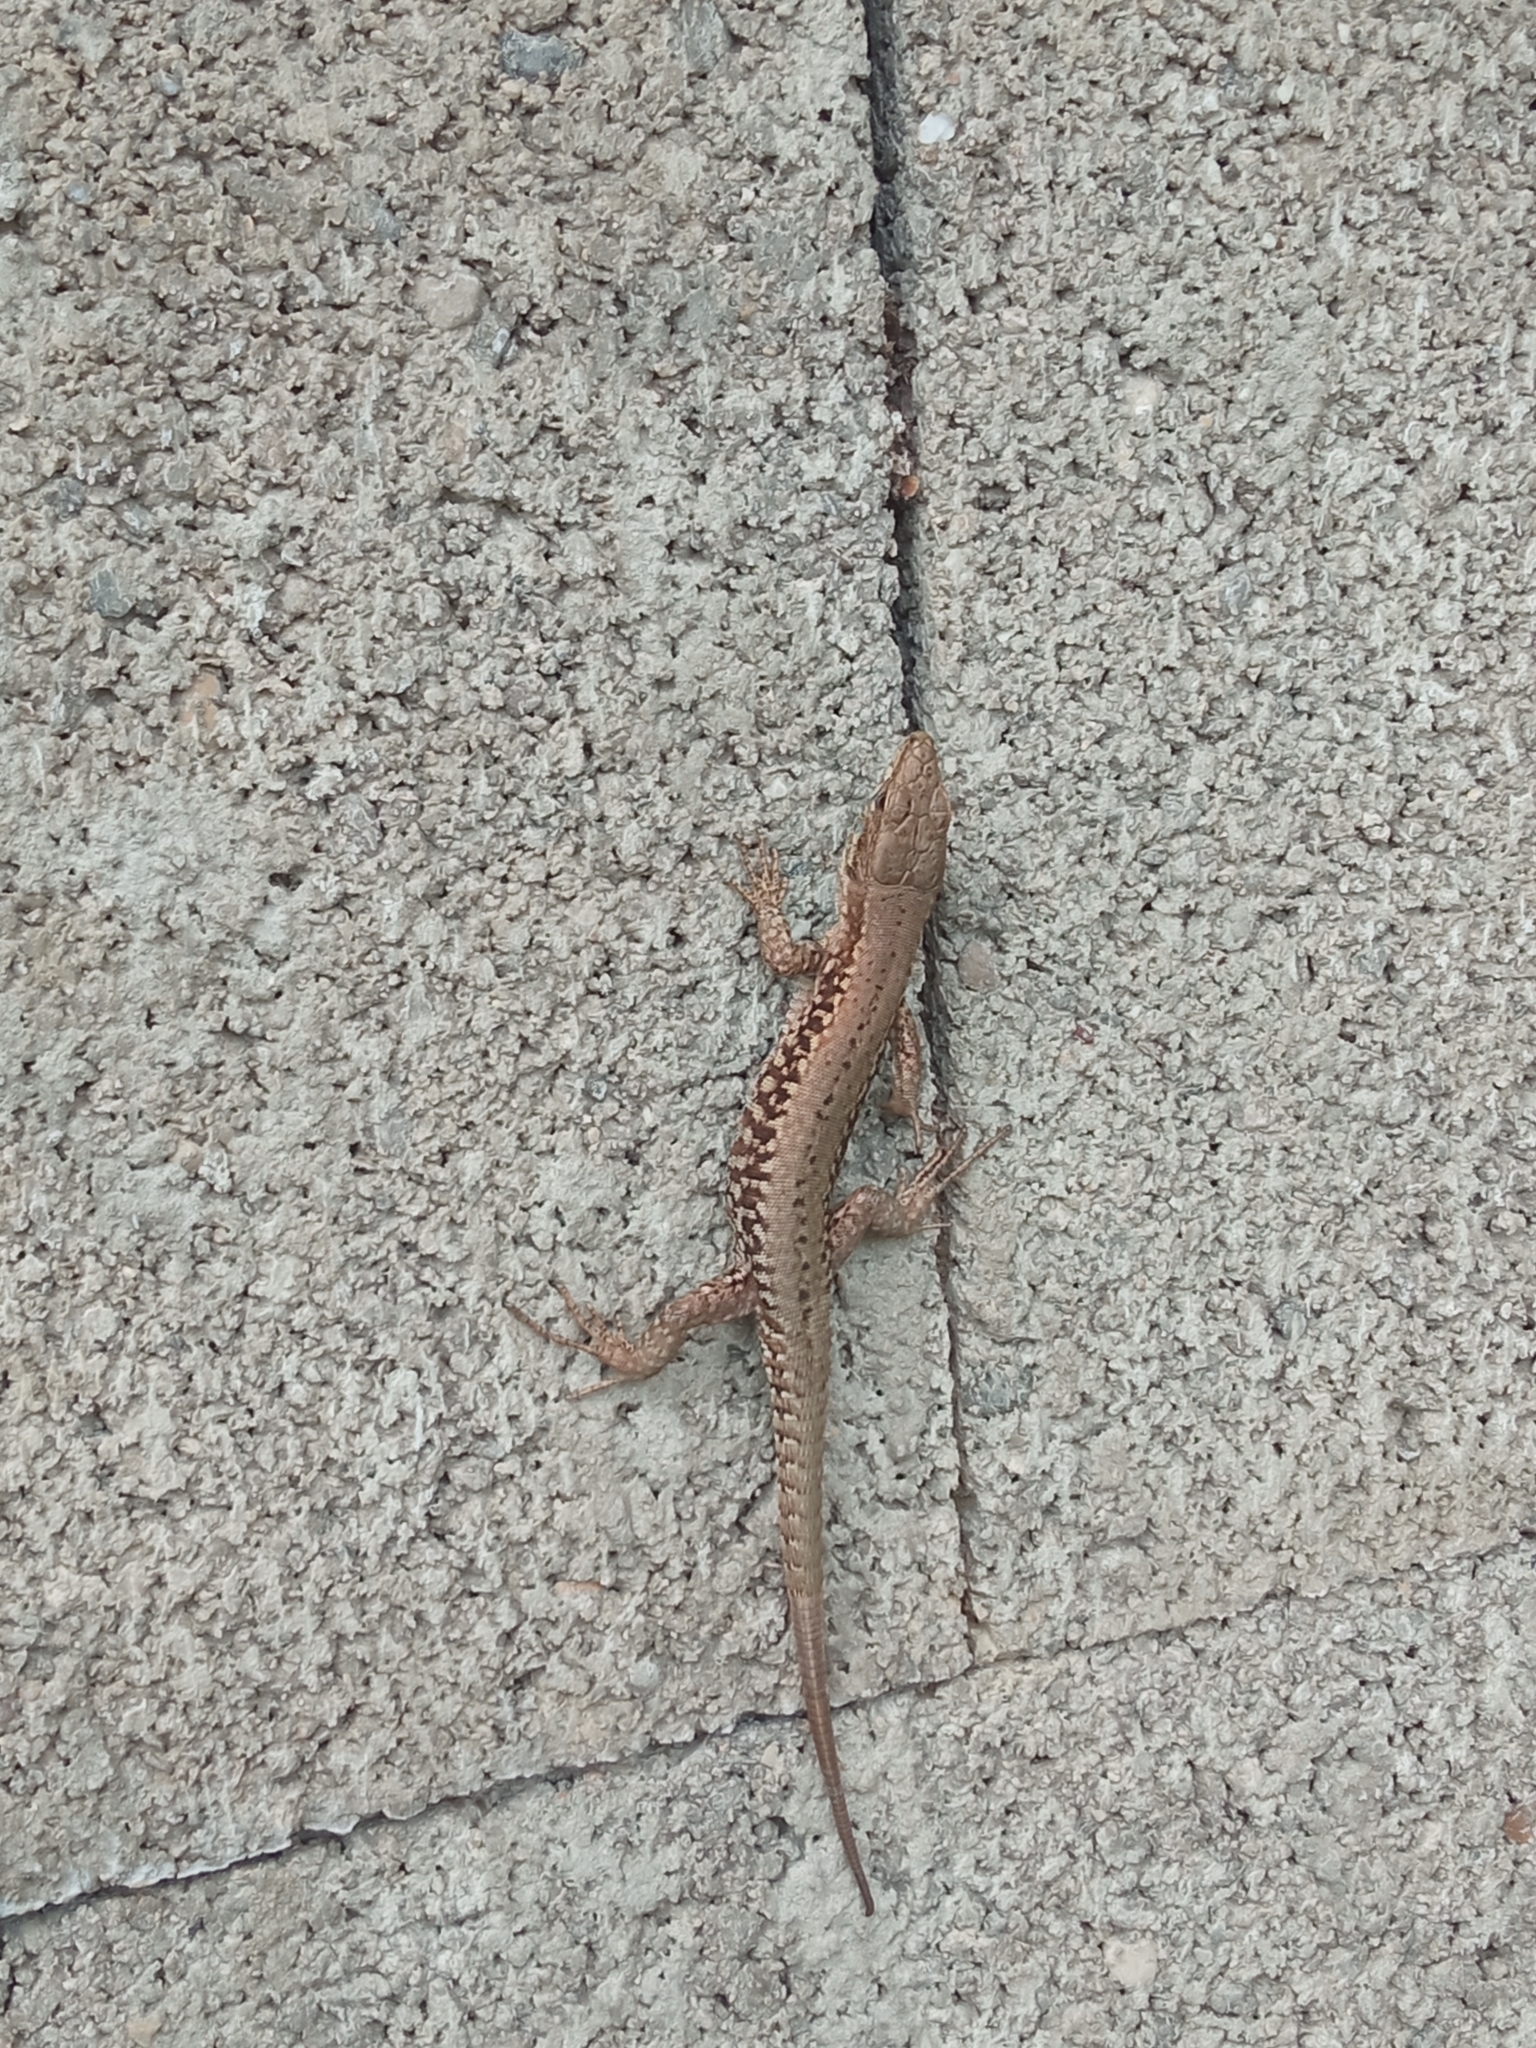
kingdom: Animalia
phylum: Chordata
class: Squamata
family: Lacertidae
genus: Podarcis
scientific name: Podarcis muralis
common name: Common wall lizard
